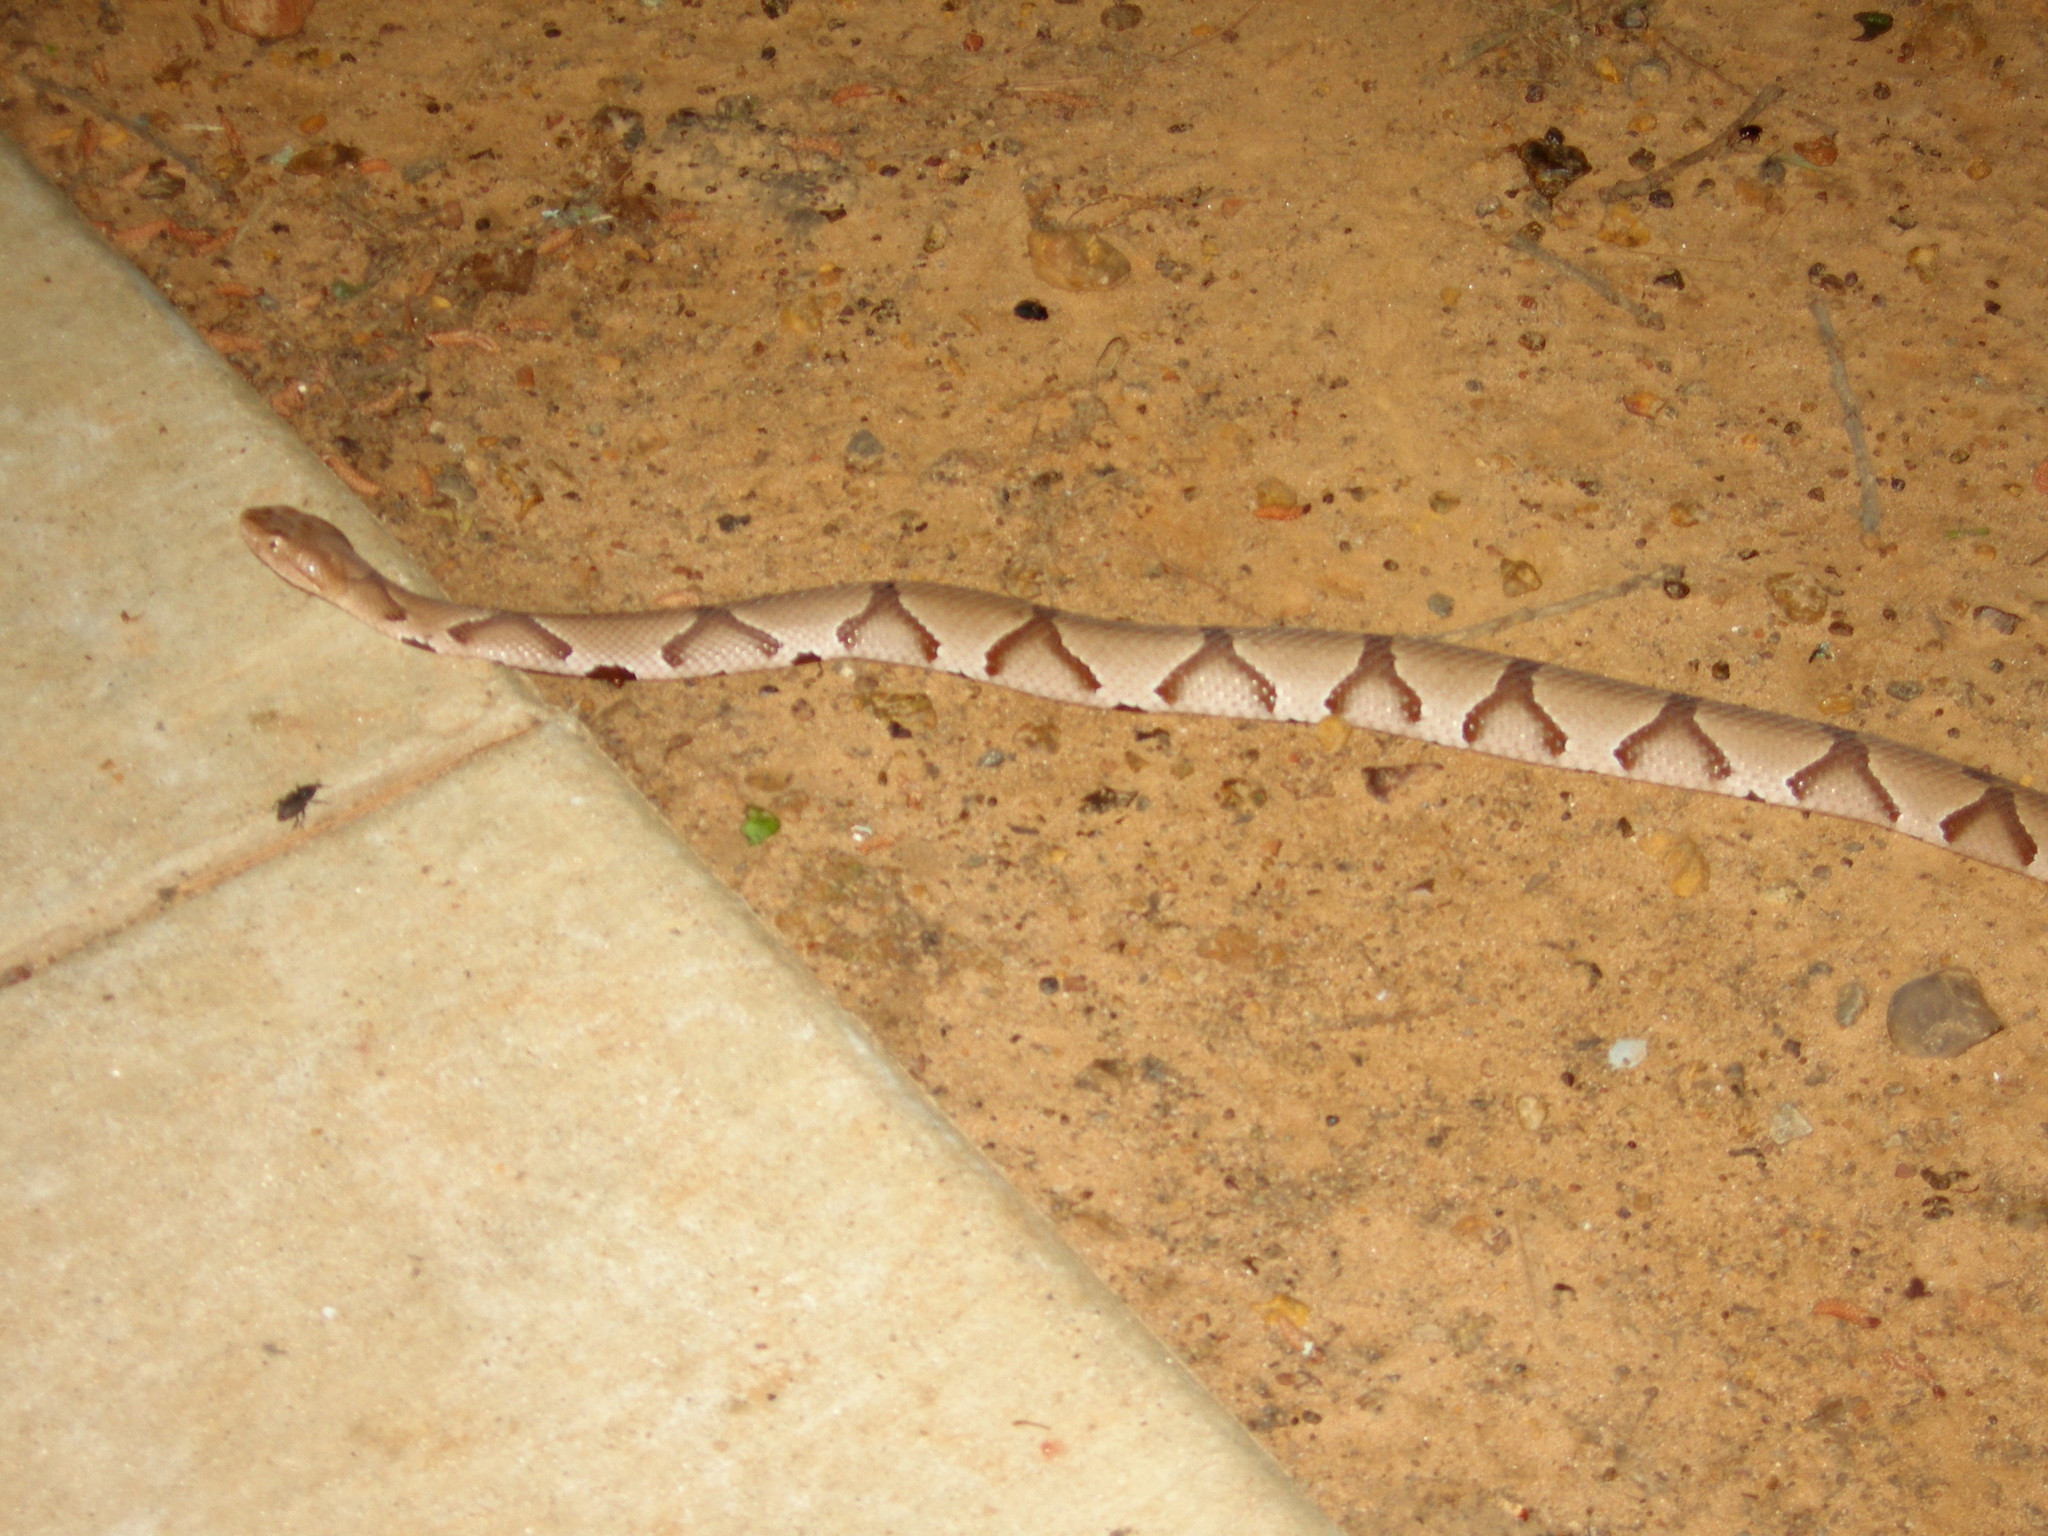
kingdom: Animalia
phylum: Chordata
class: Squamata
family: Viperidae
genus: Agkistrodon
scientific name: Agkistrodon contortrix
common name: Northern copperhead
